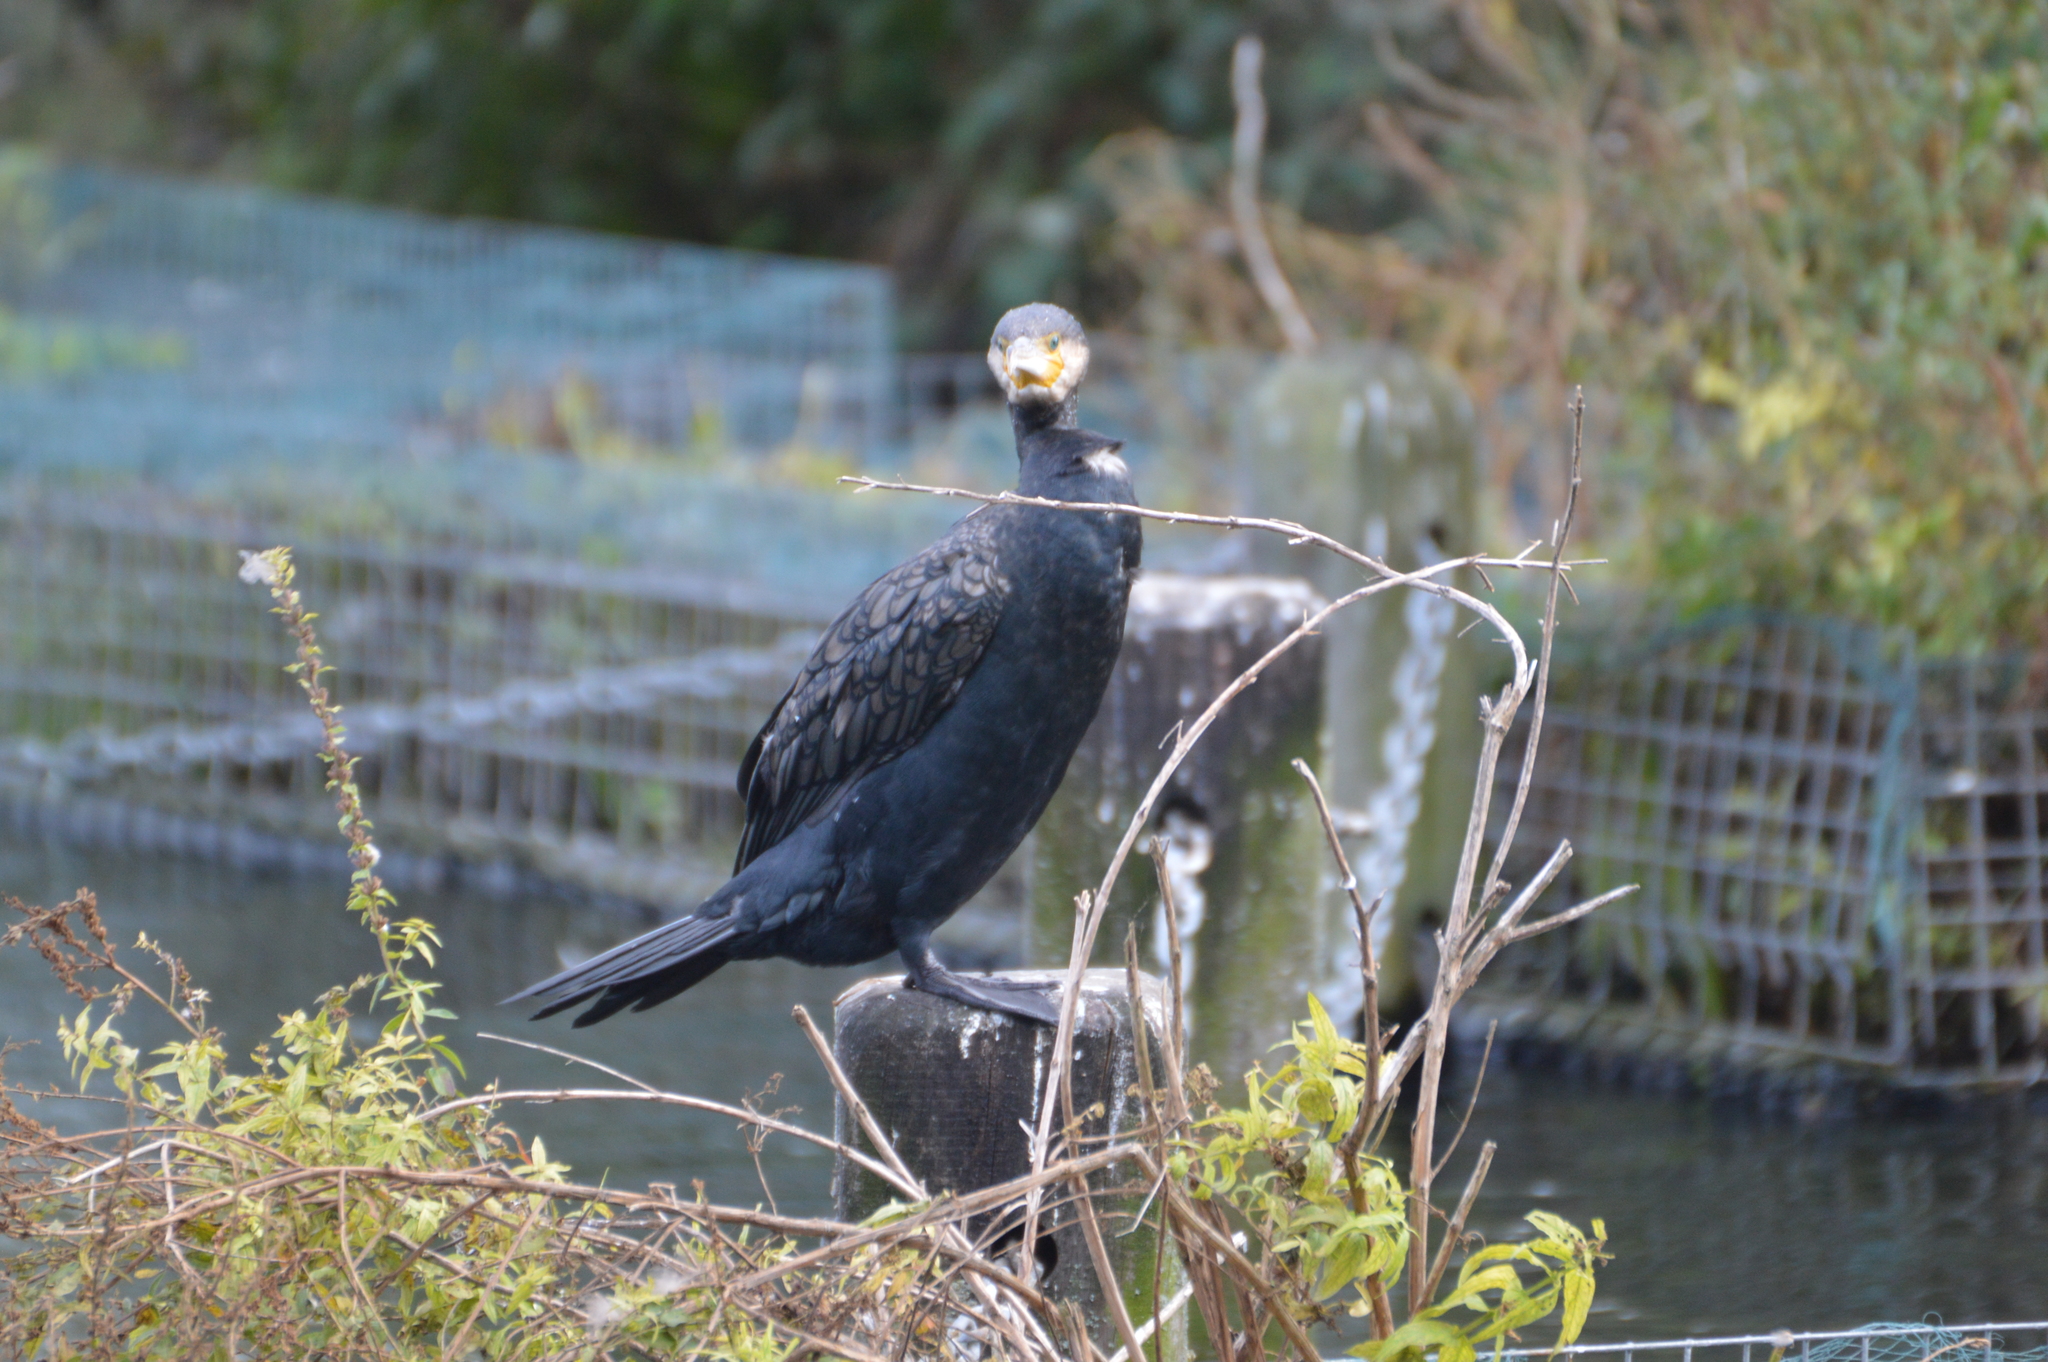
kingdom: Animalia
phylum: Chordata
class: Aves
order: Suliformes
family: Phalacrocoracidae
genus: Phalacrocorax
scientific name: Phalacrocorax carbo
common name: Great cormorant
